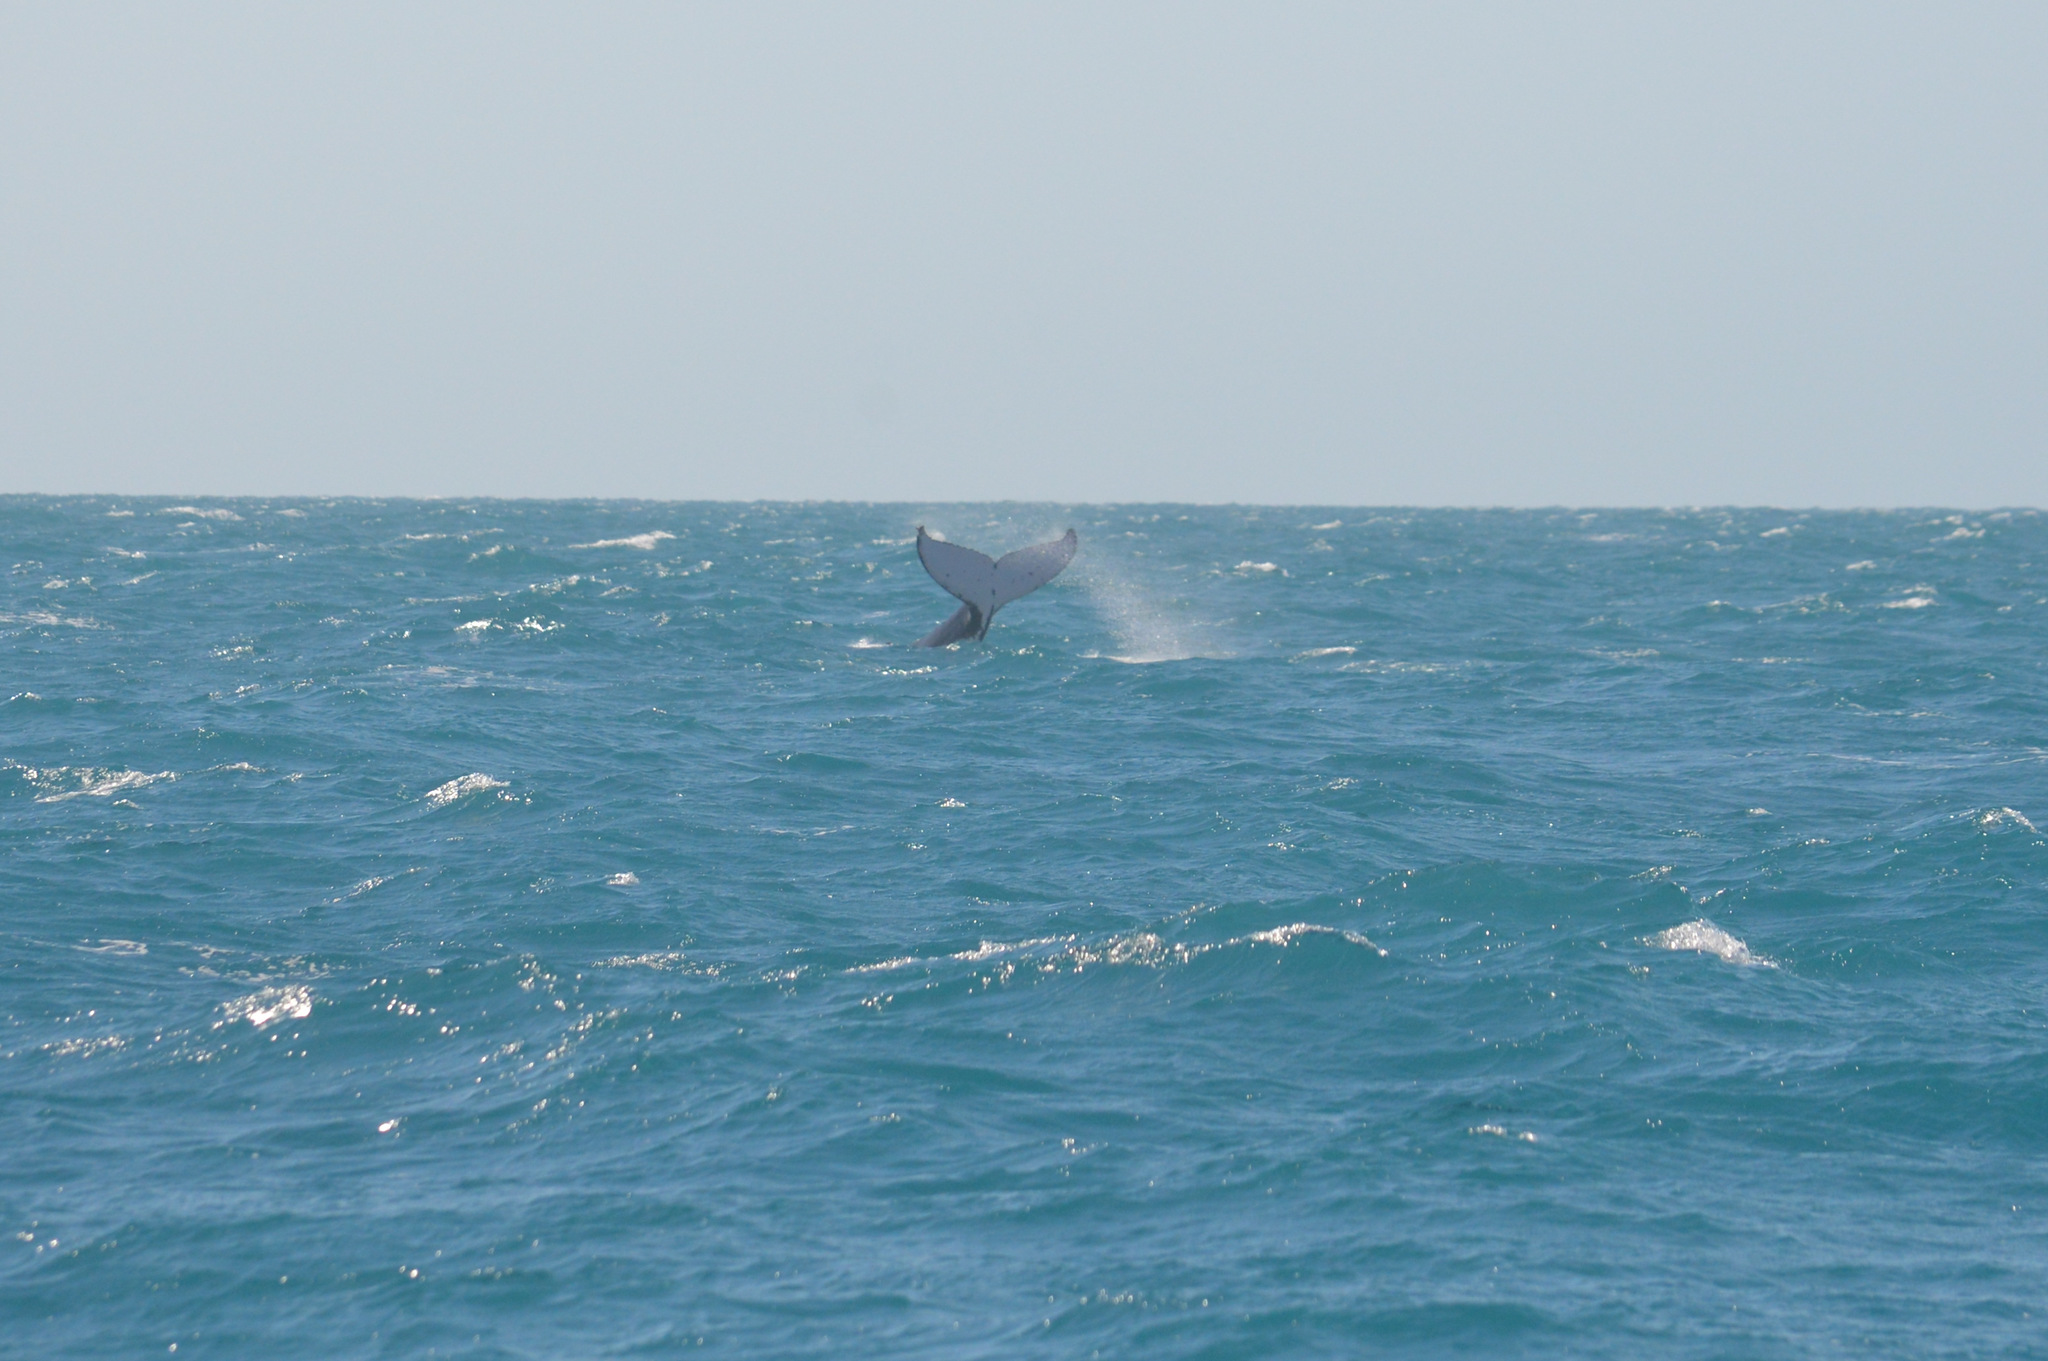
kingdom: Animalia
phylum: Chordata
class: Mammalia
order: Cetacea
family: Balaenopteridae
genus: Megaptera
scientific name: Megaptera novaeangliae
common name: Humpback whale
